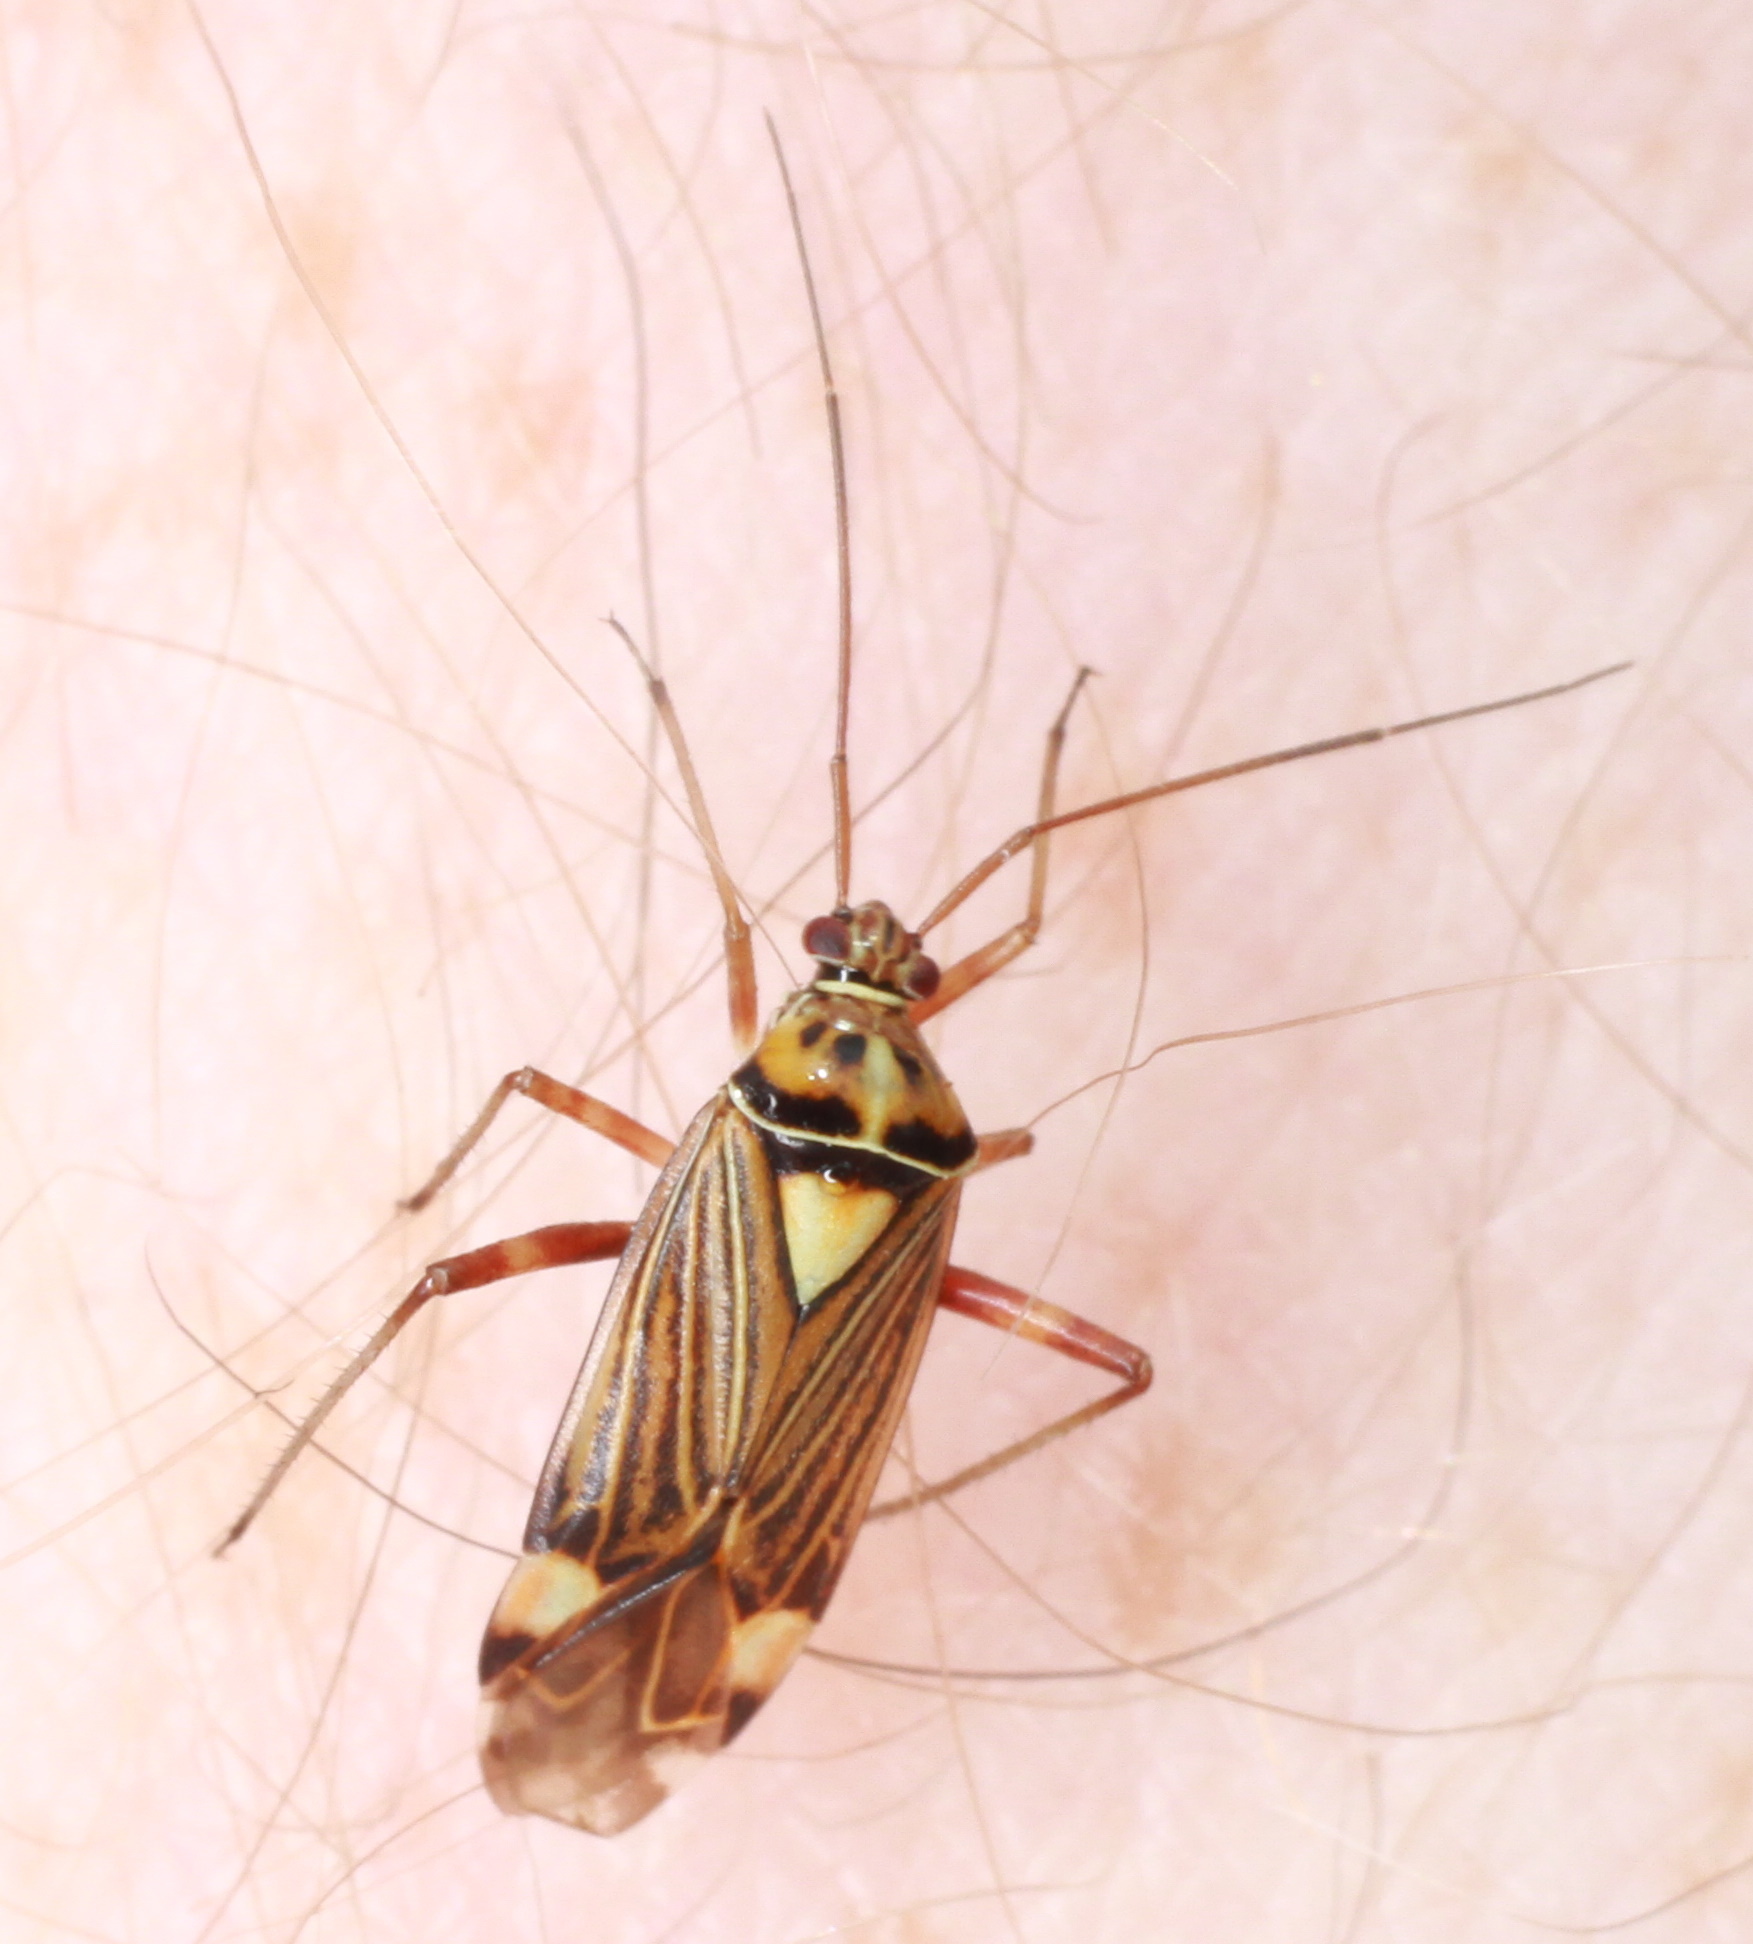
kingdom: Animalia
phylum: Arthropoda
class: Insecta
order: Hemiptera
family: Miridae
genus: Rhabdomiris
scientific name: Rhabdomiris striatellus
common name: Plant bug
